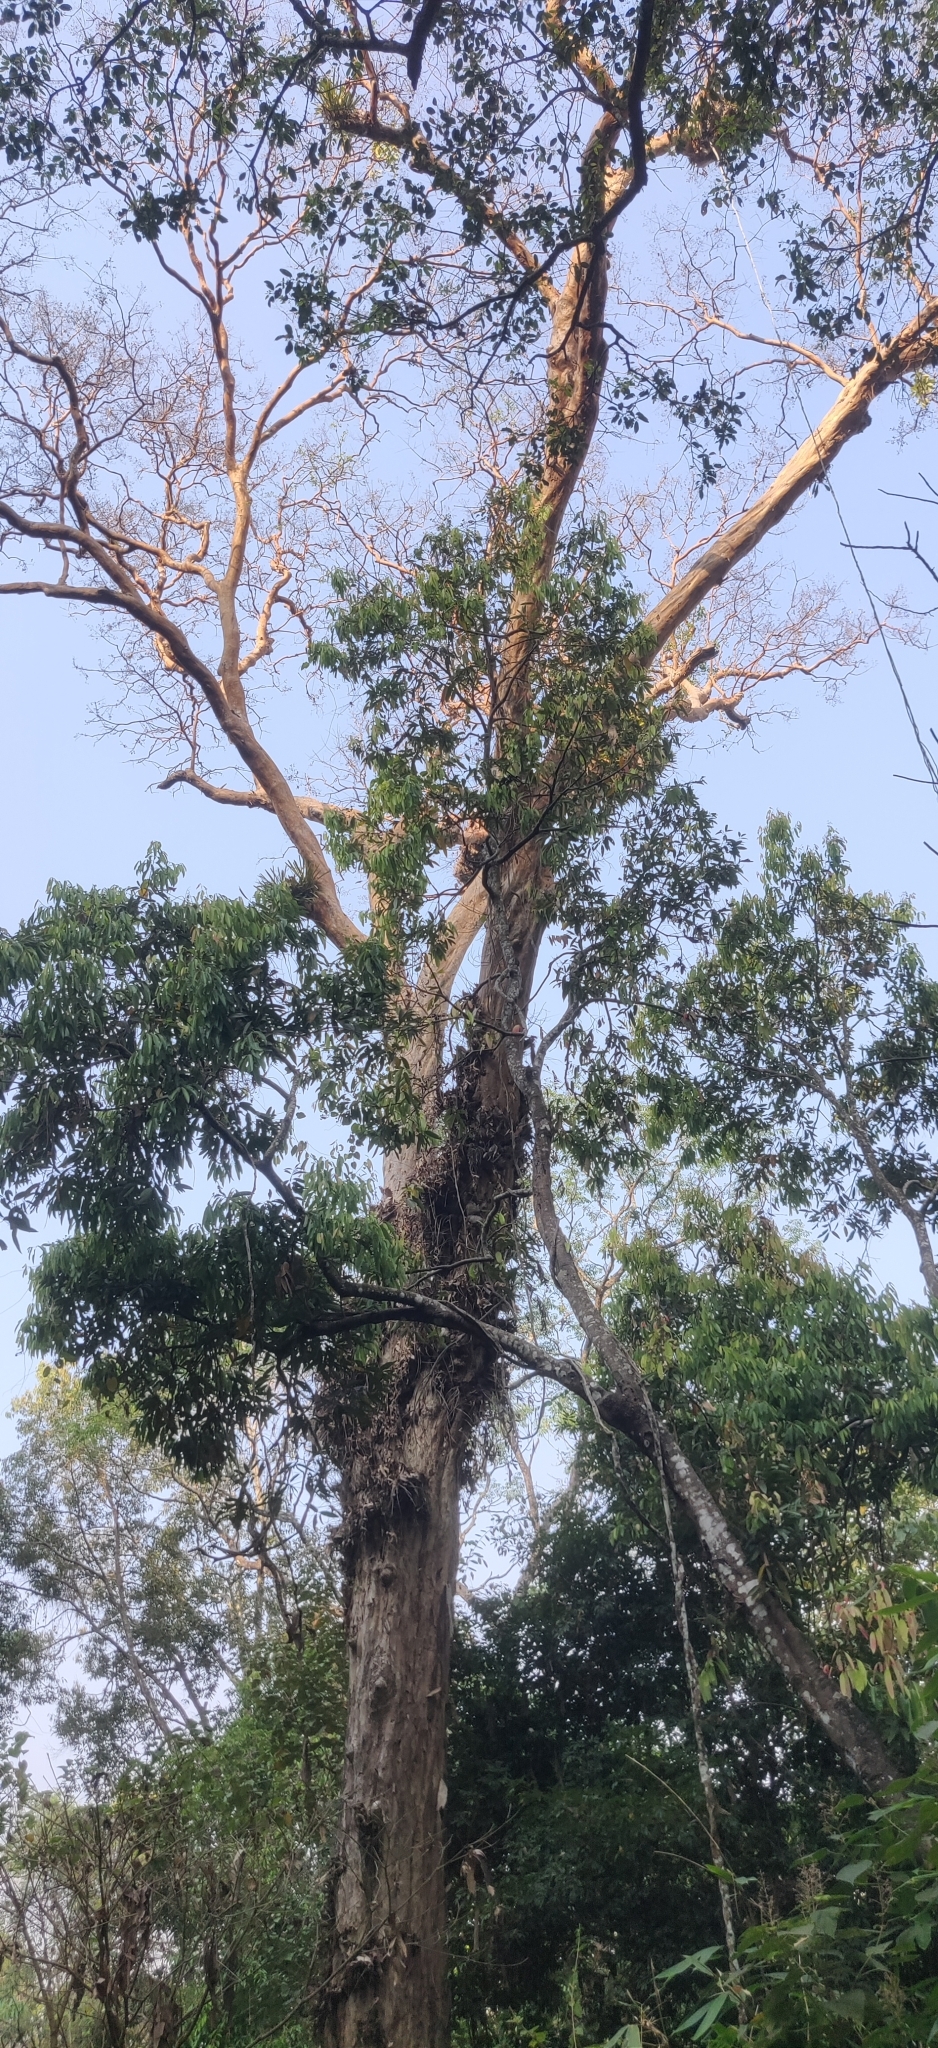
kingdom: Plantae
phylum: Tracheophyta
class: Magnoliopsida
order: Myrtales
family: Lythraceae
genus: Lagerstroemia
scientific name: Lagerstroemia microcarpa
